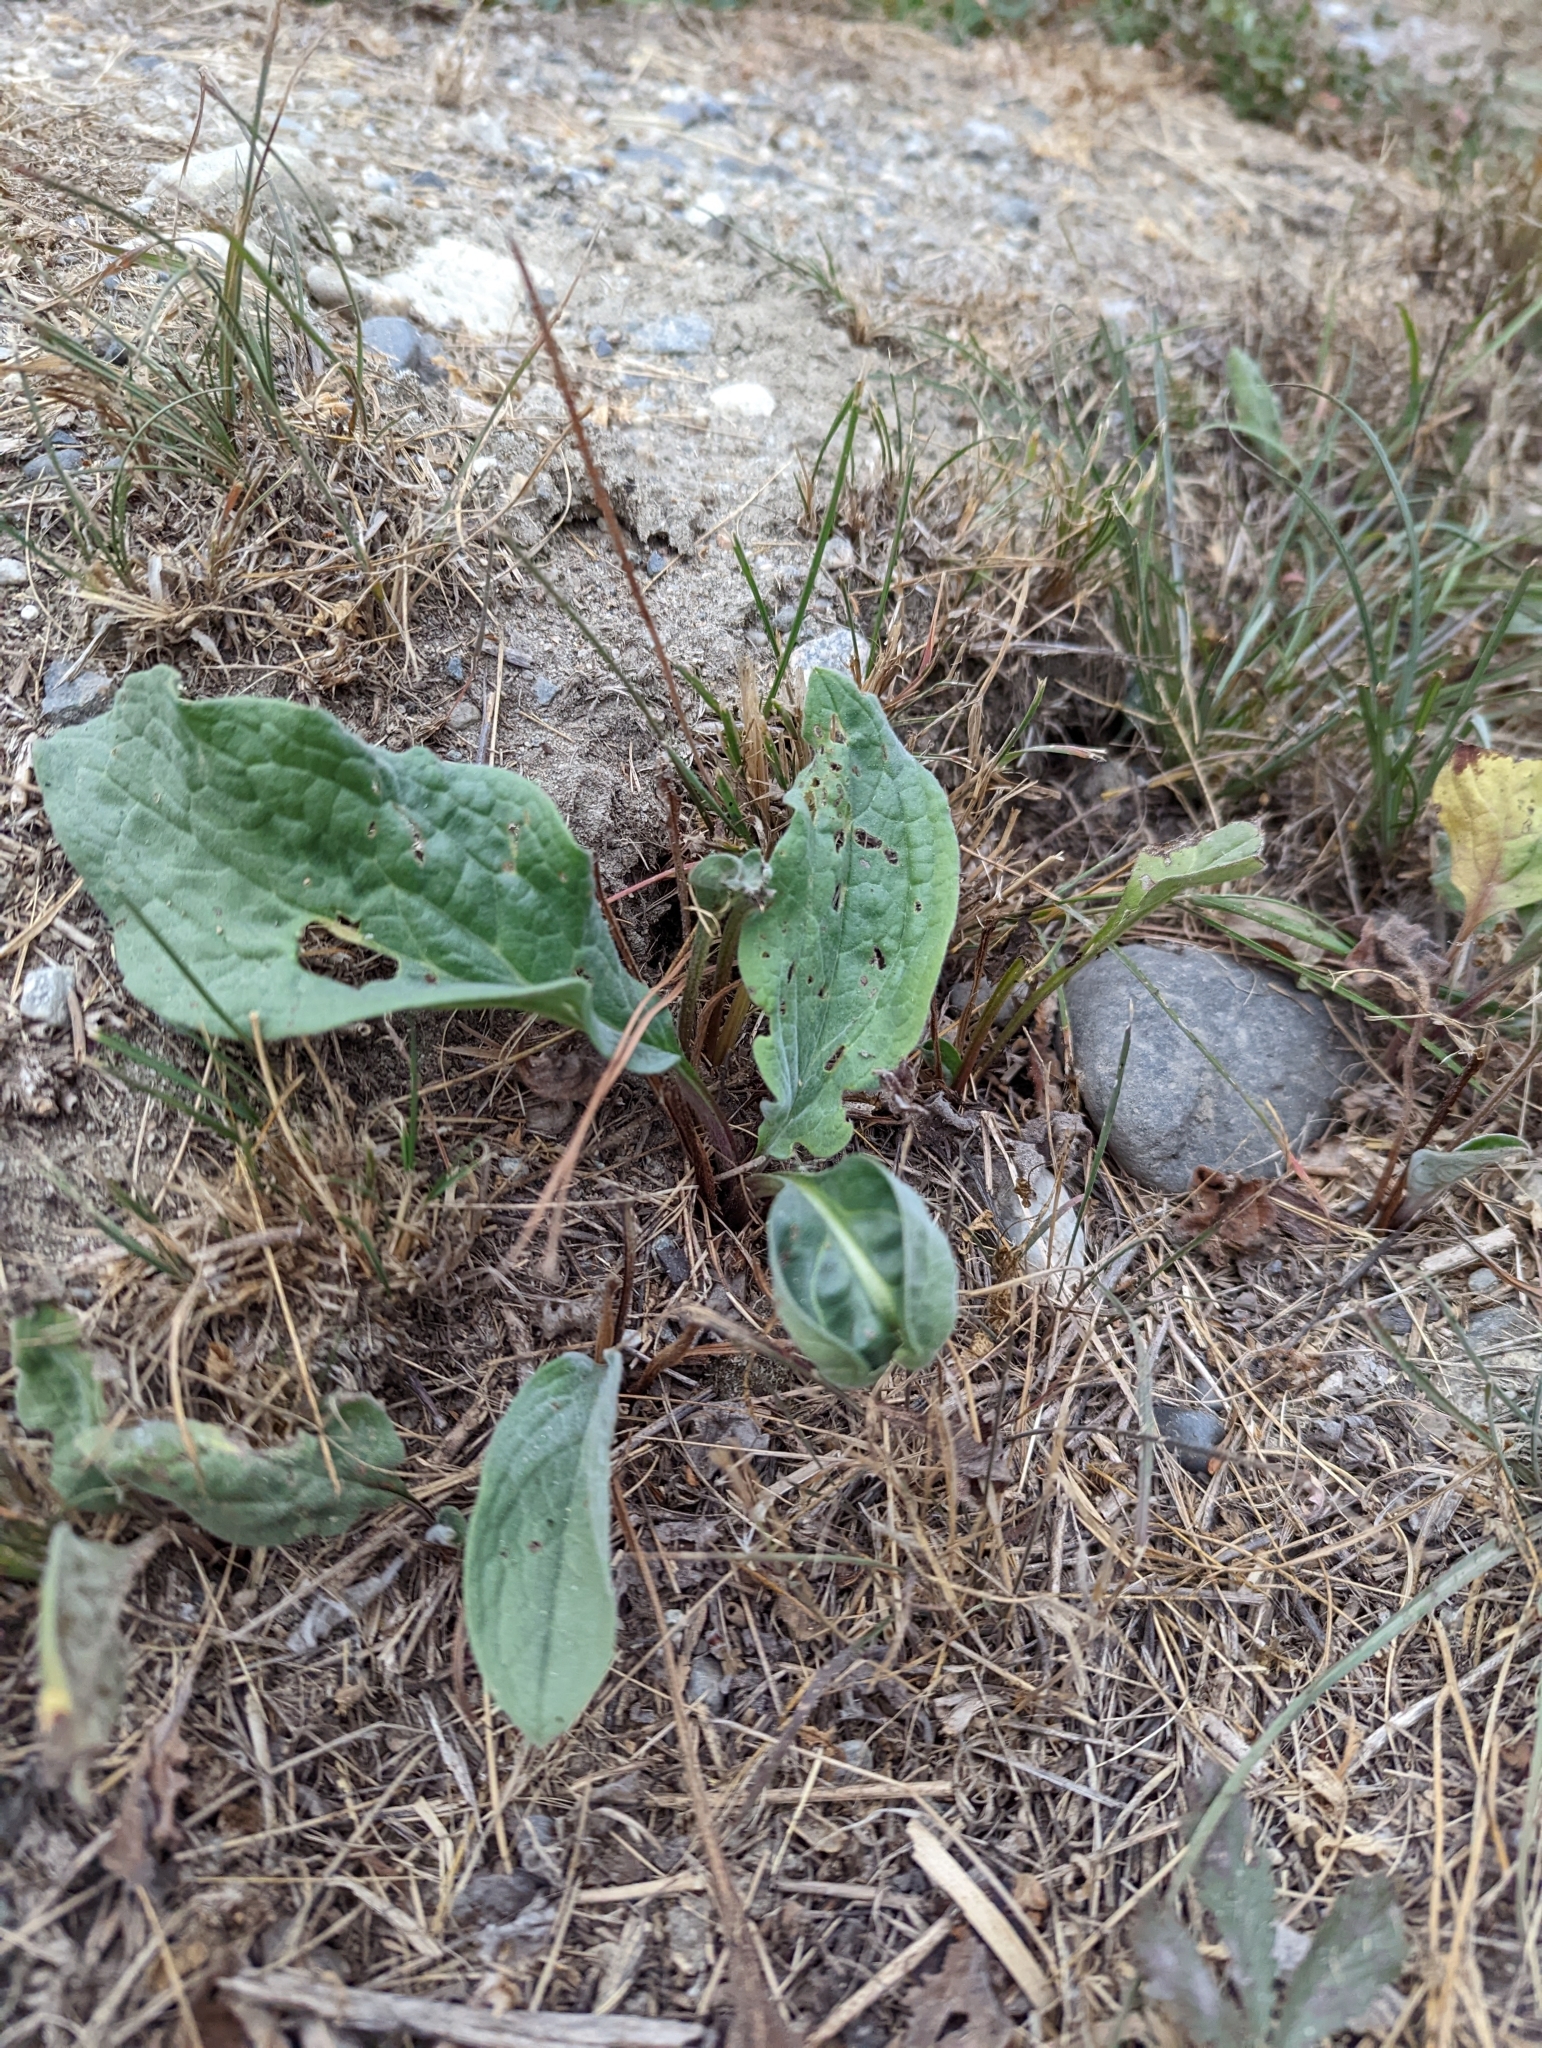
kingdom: Plantae
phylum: Tracheophyta
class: Magnoliopsida
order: Lamiales
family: Plantaginaceae
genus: Plantago
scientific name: Plantago major
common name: Common plantain
